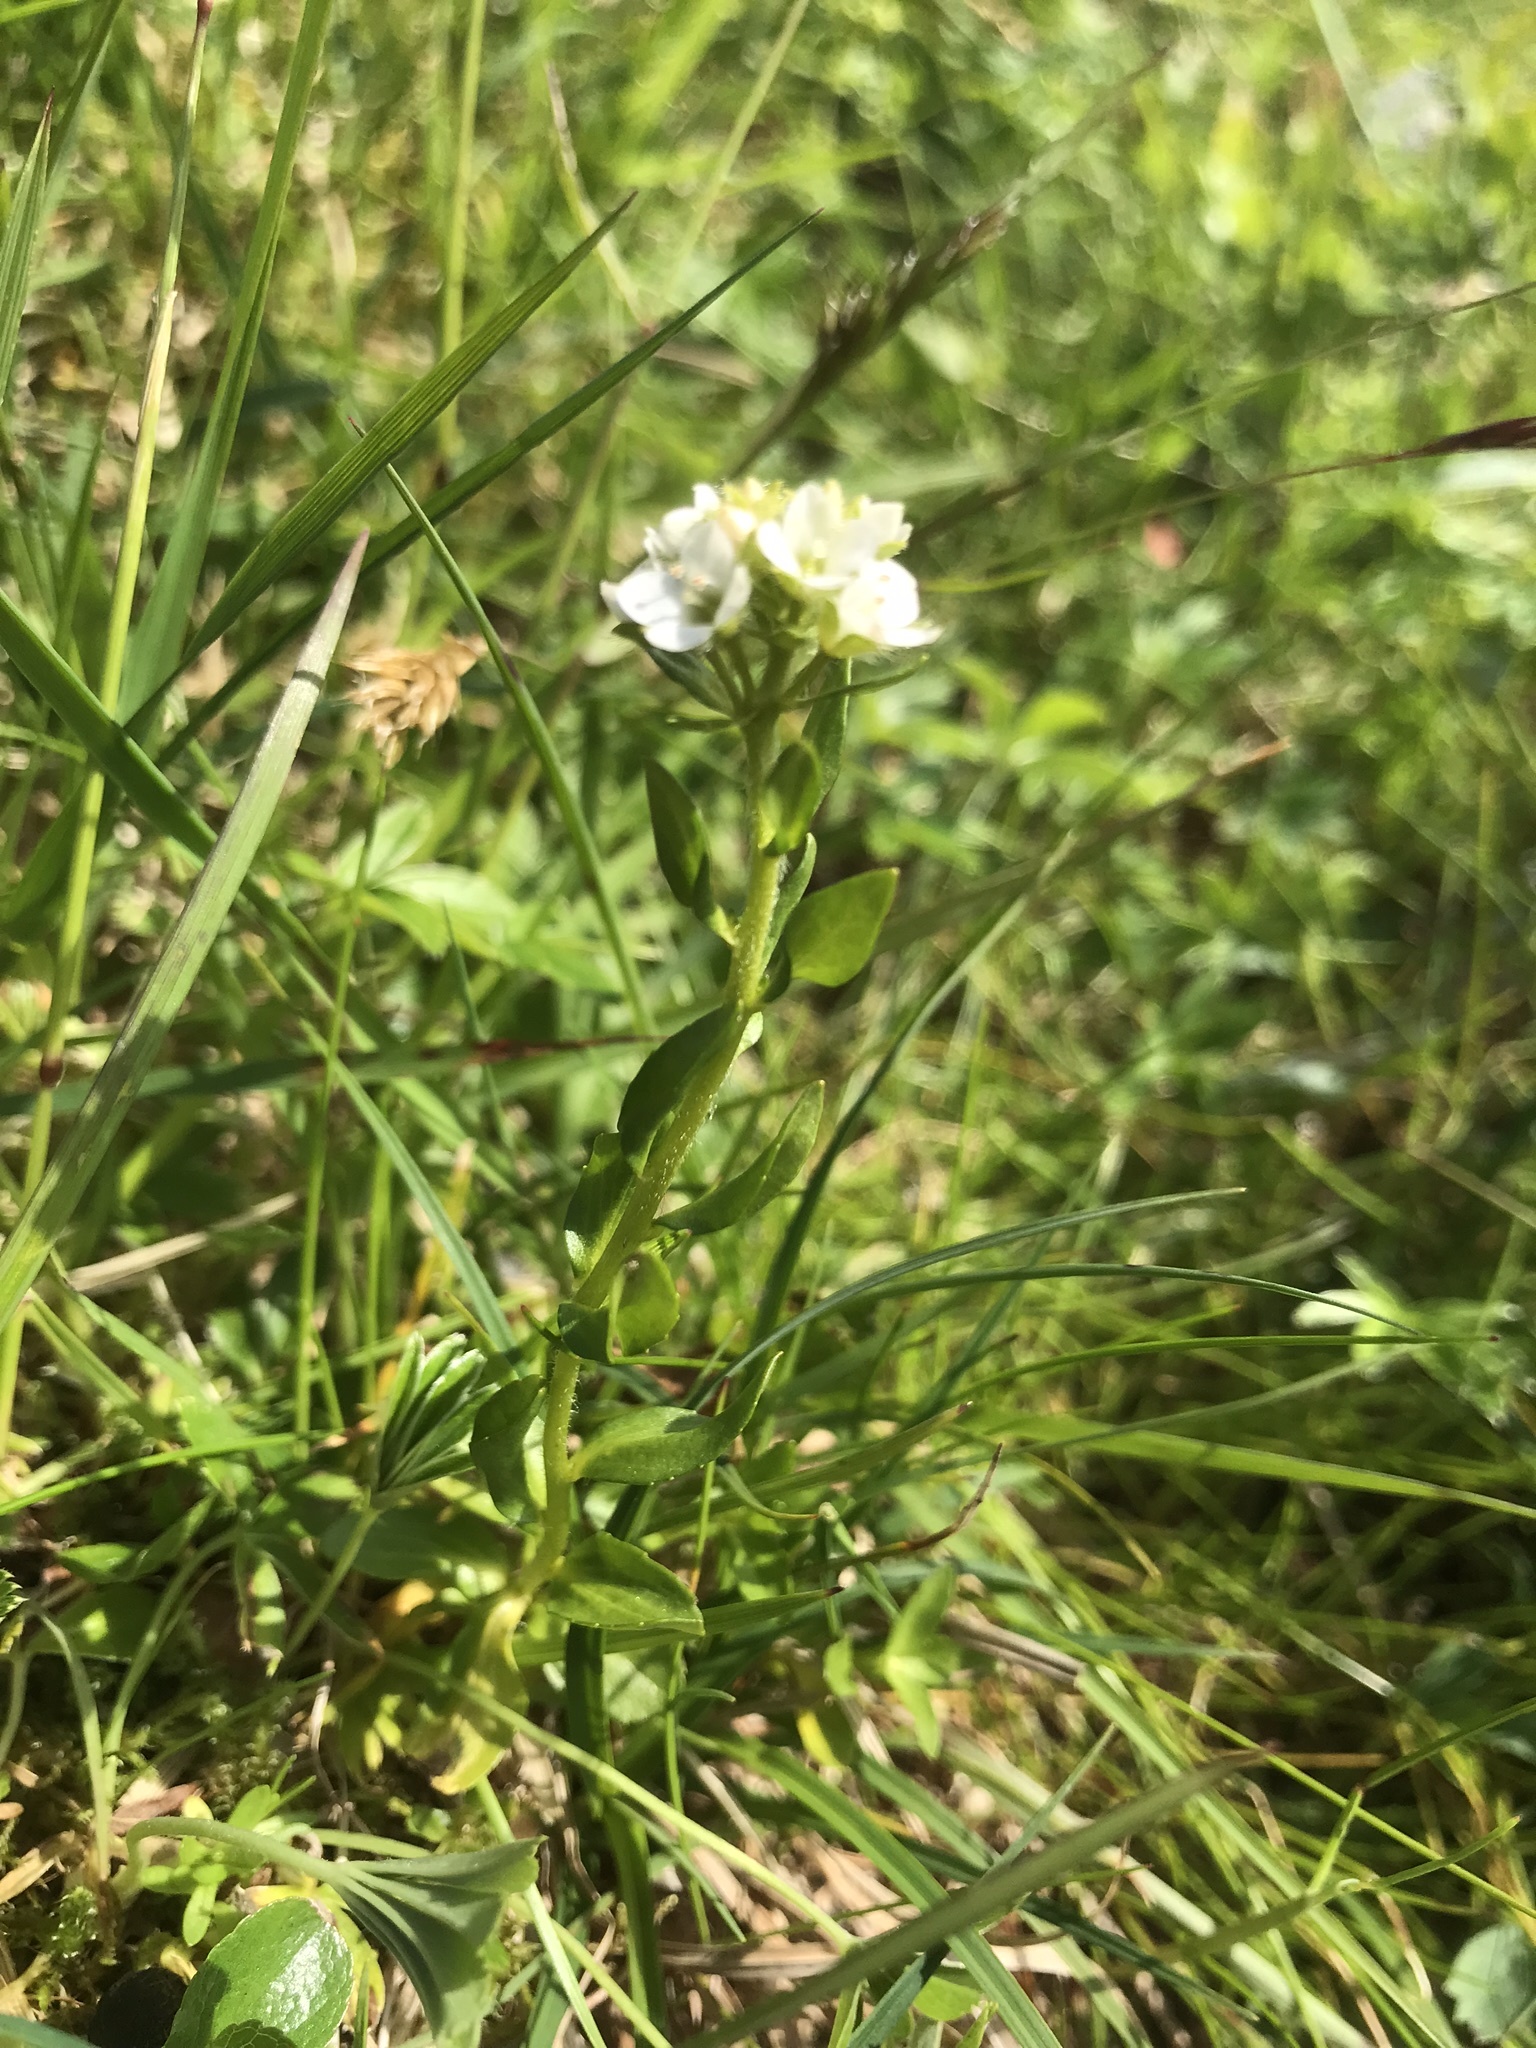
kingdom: Plantae
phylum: Tracheophyta
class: Magnoliopsida
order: Lamiales
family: Plantaginaceae
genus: Veronica
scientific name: Veronica alpina
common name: Alpine speedwell
